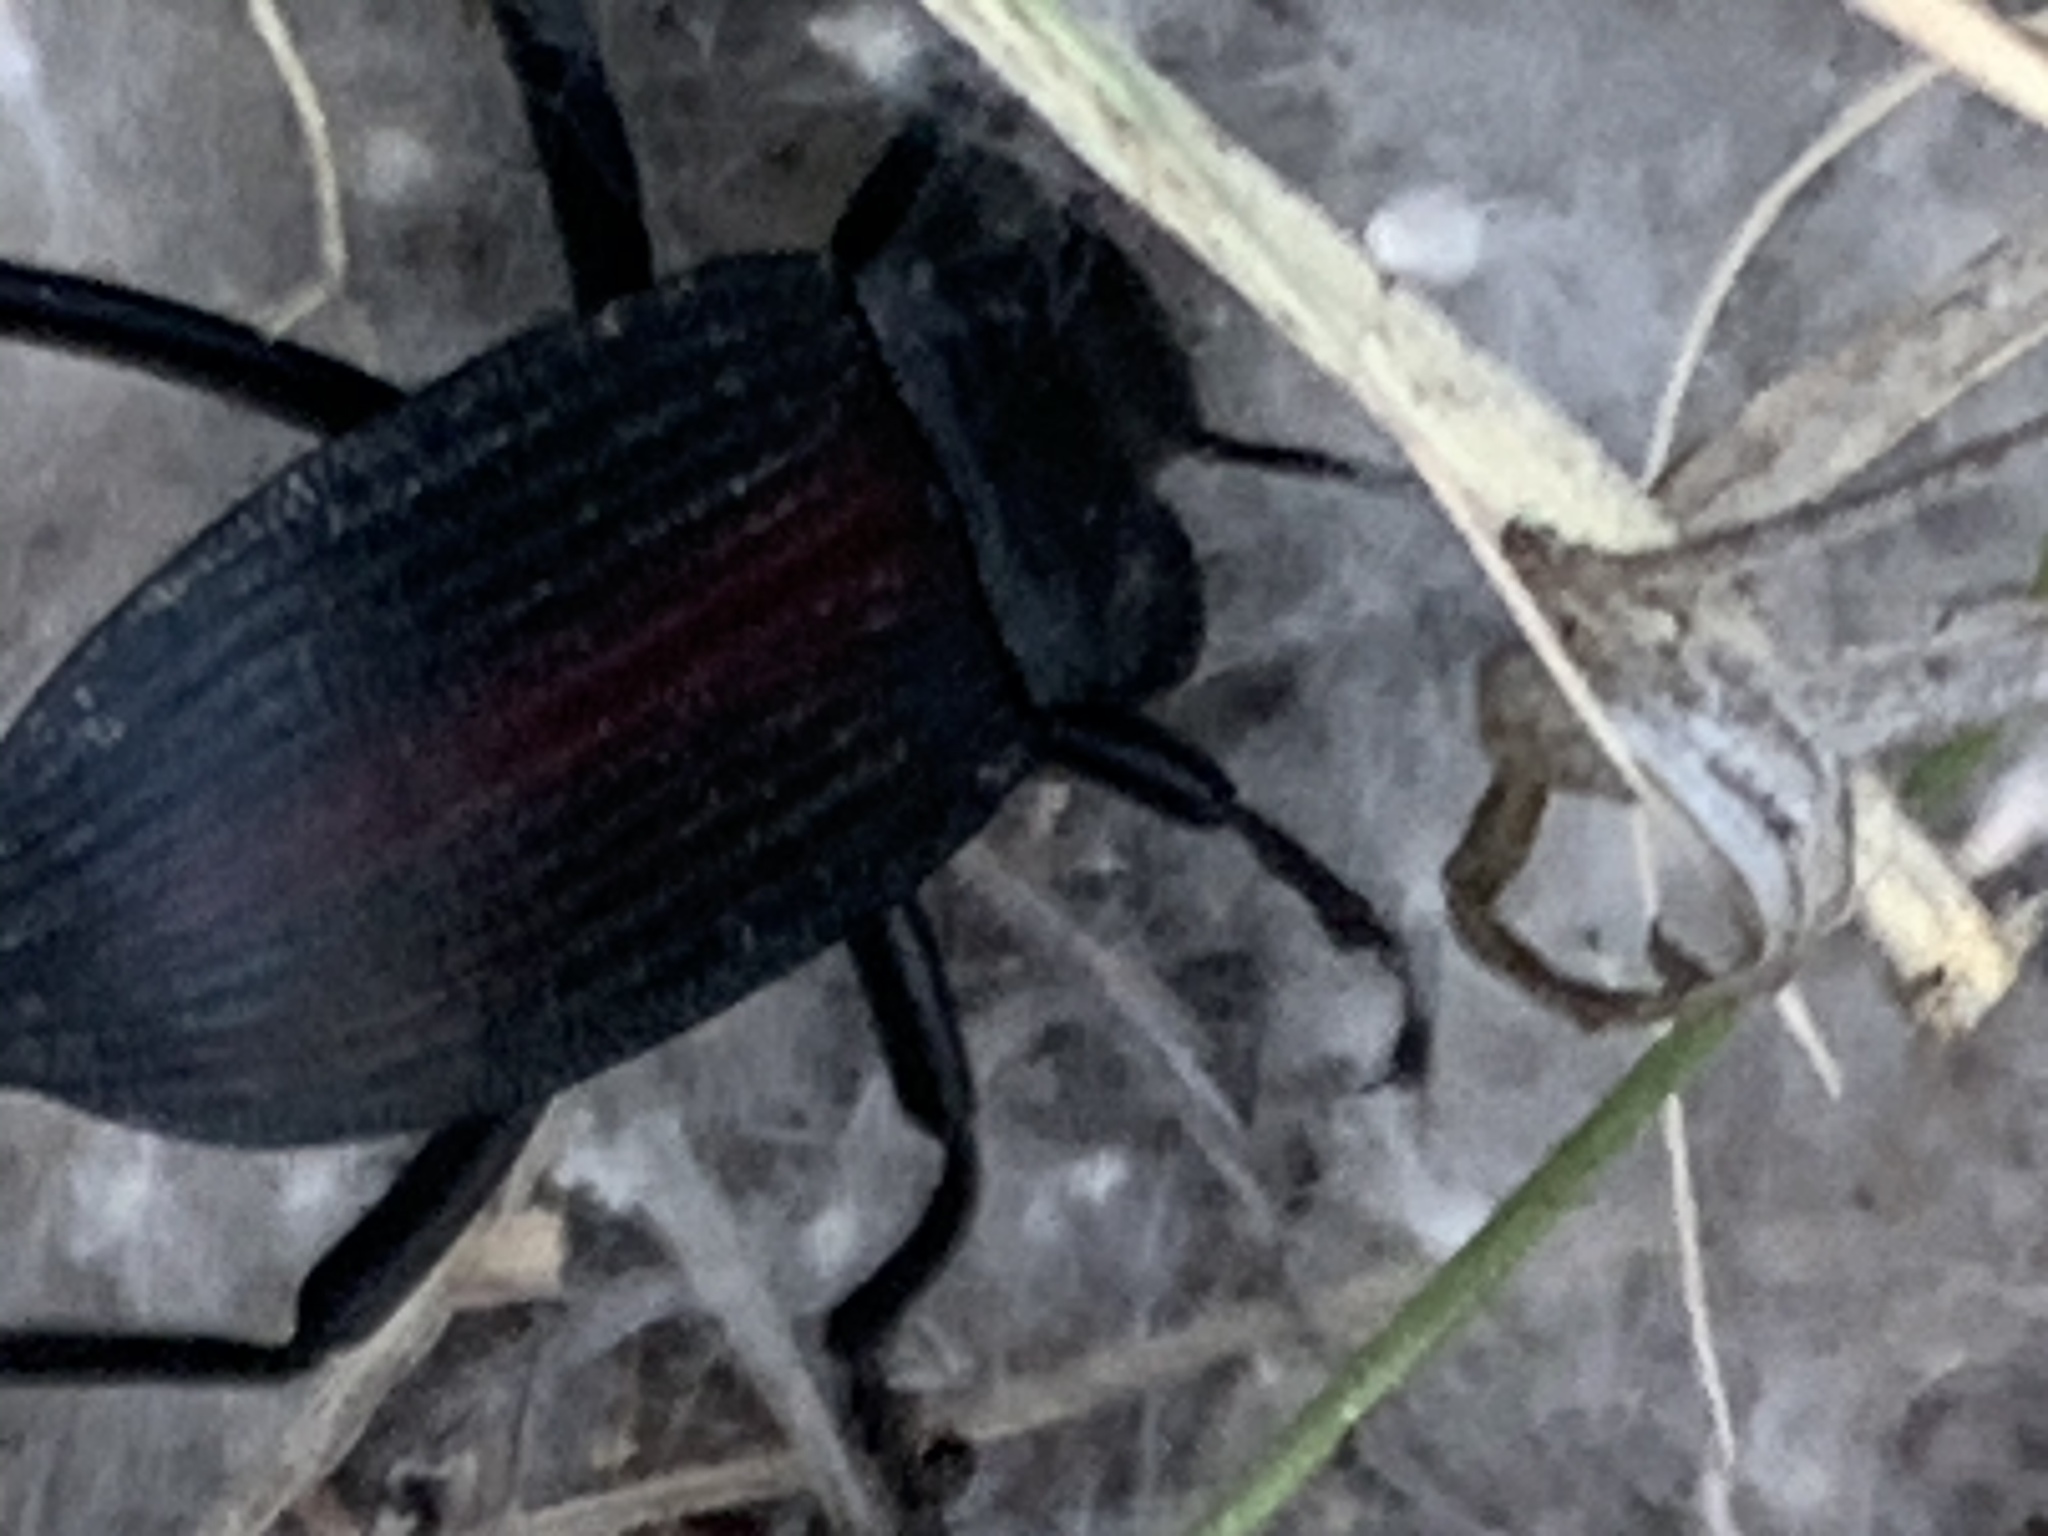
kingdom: Animalia
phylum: Arthropoda
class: Insecta
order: Coleoptera
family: Tenebrionidae
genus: Eleodes
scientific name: Eleodes suturalis
